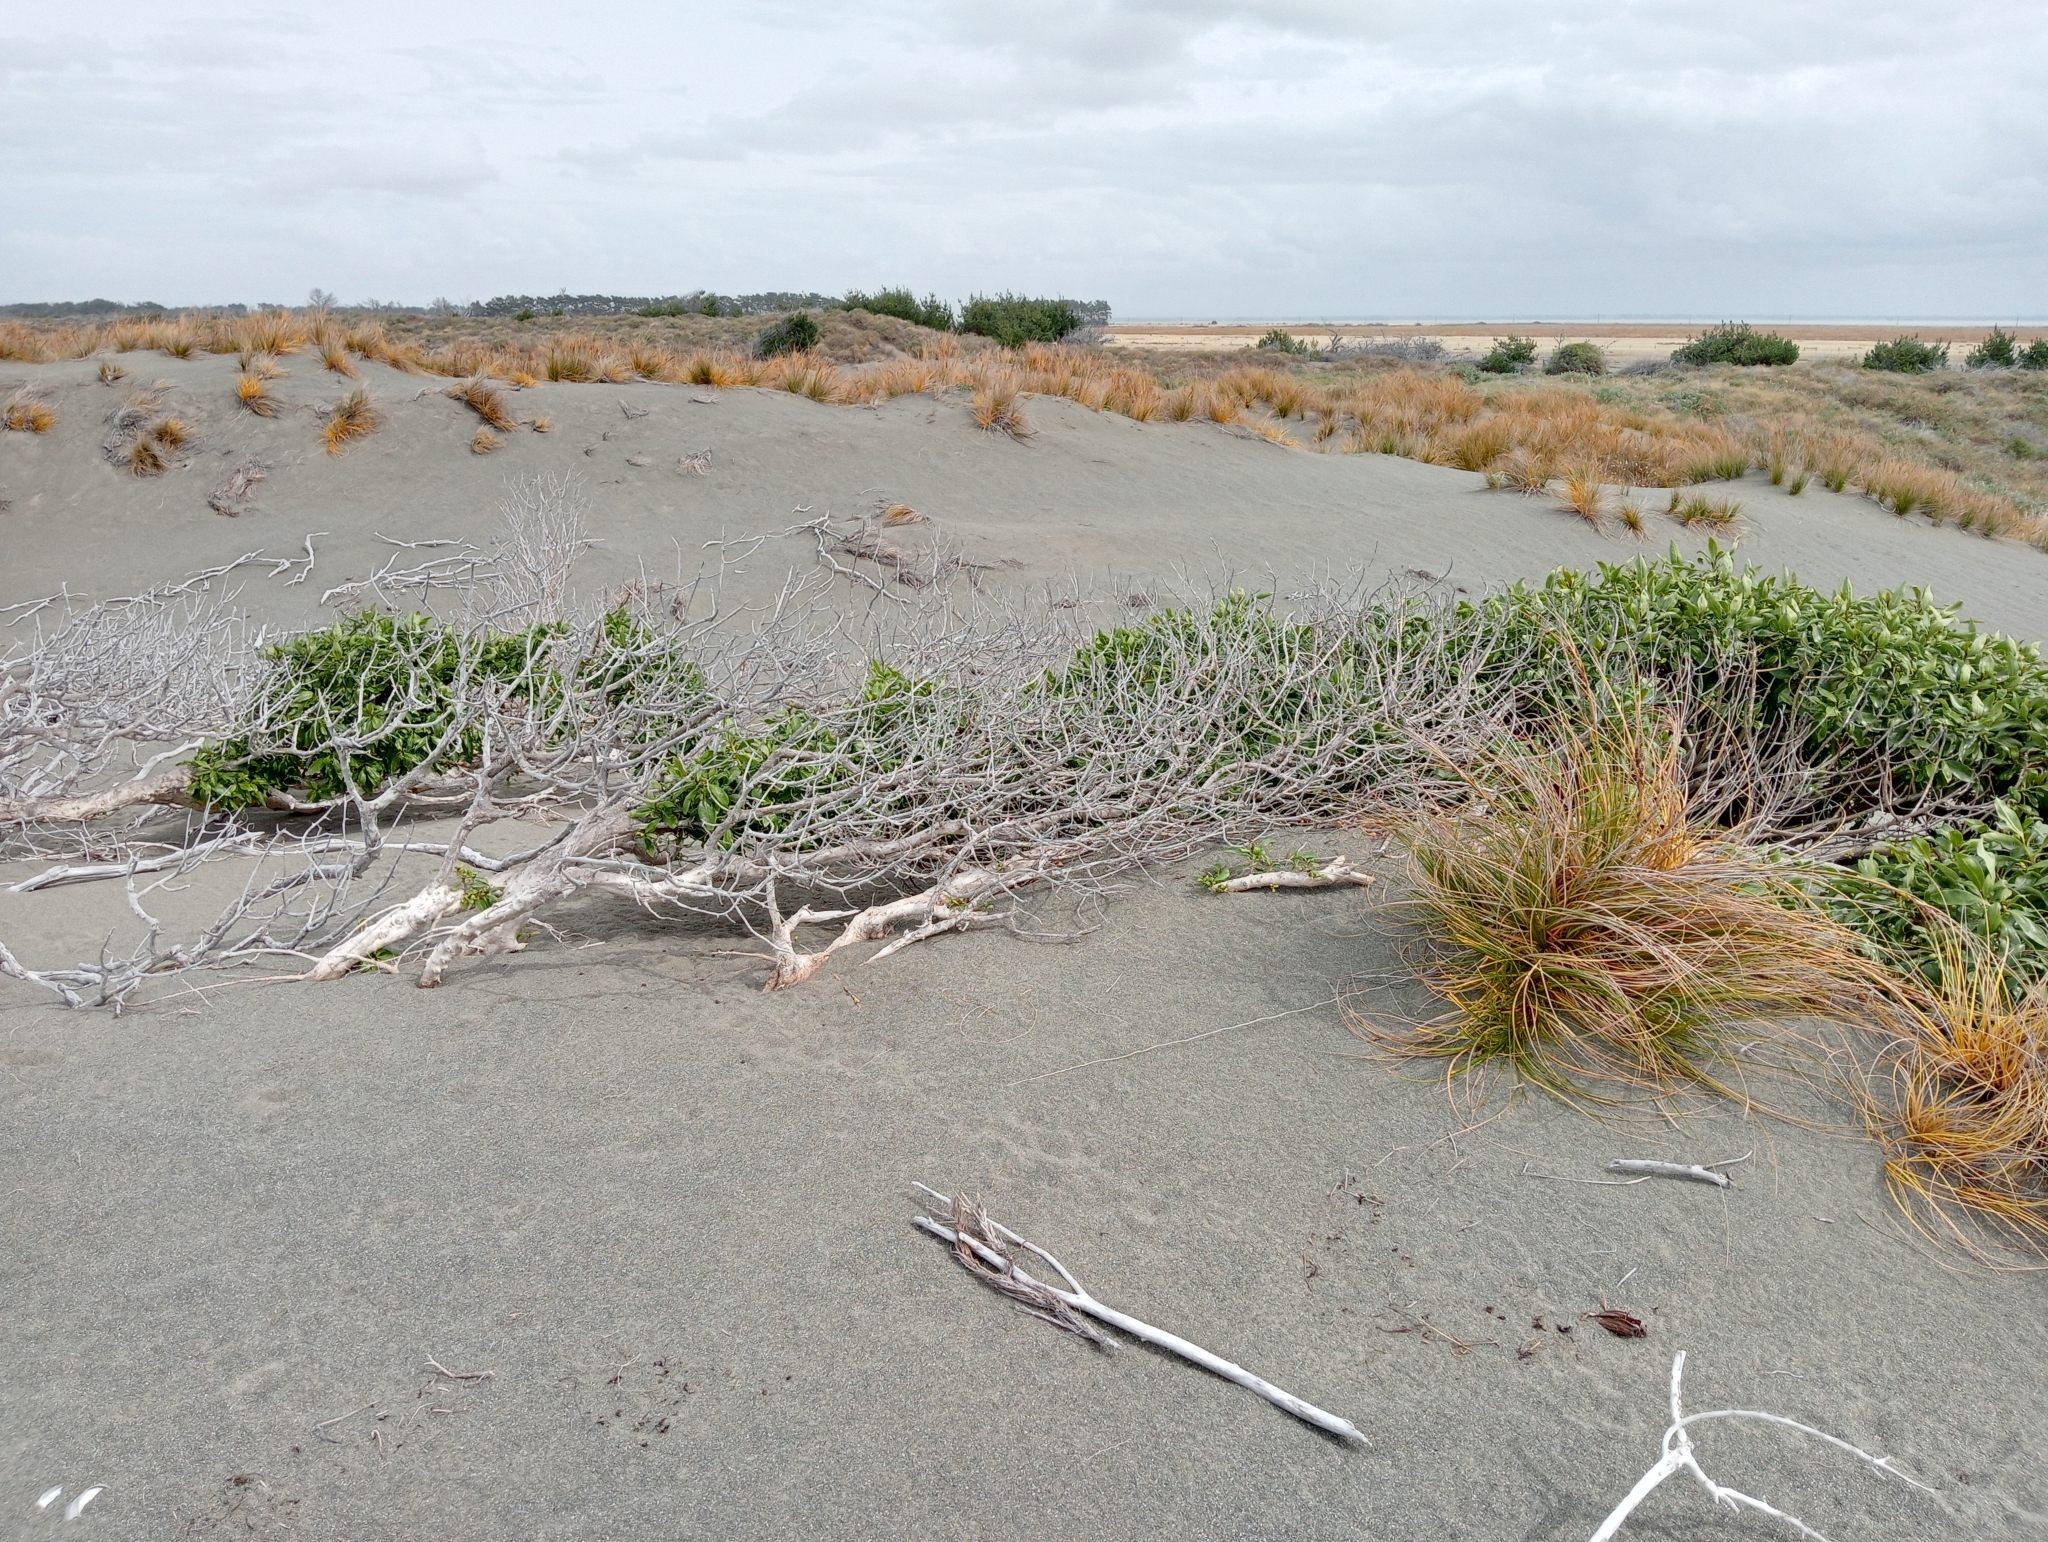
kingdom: Plantae
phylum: Tracheophyta
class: Magnoliopsida
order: Lamiales
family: Scrophulariaceae
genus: Myoporum
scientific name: Myoporum laetum
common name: Ngaio tree
